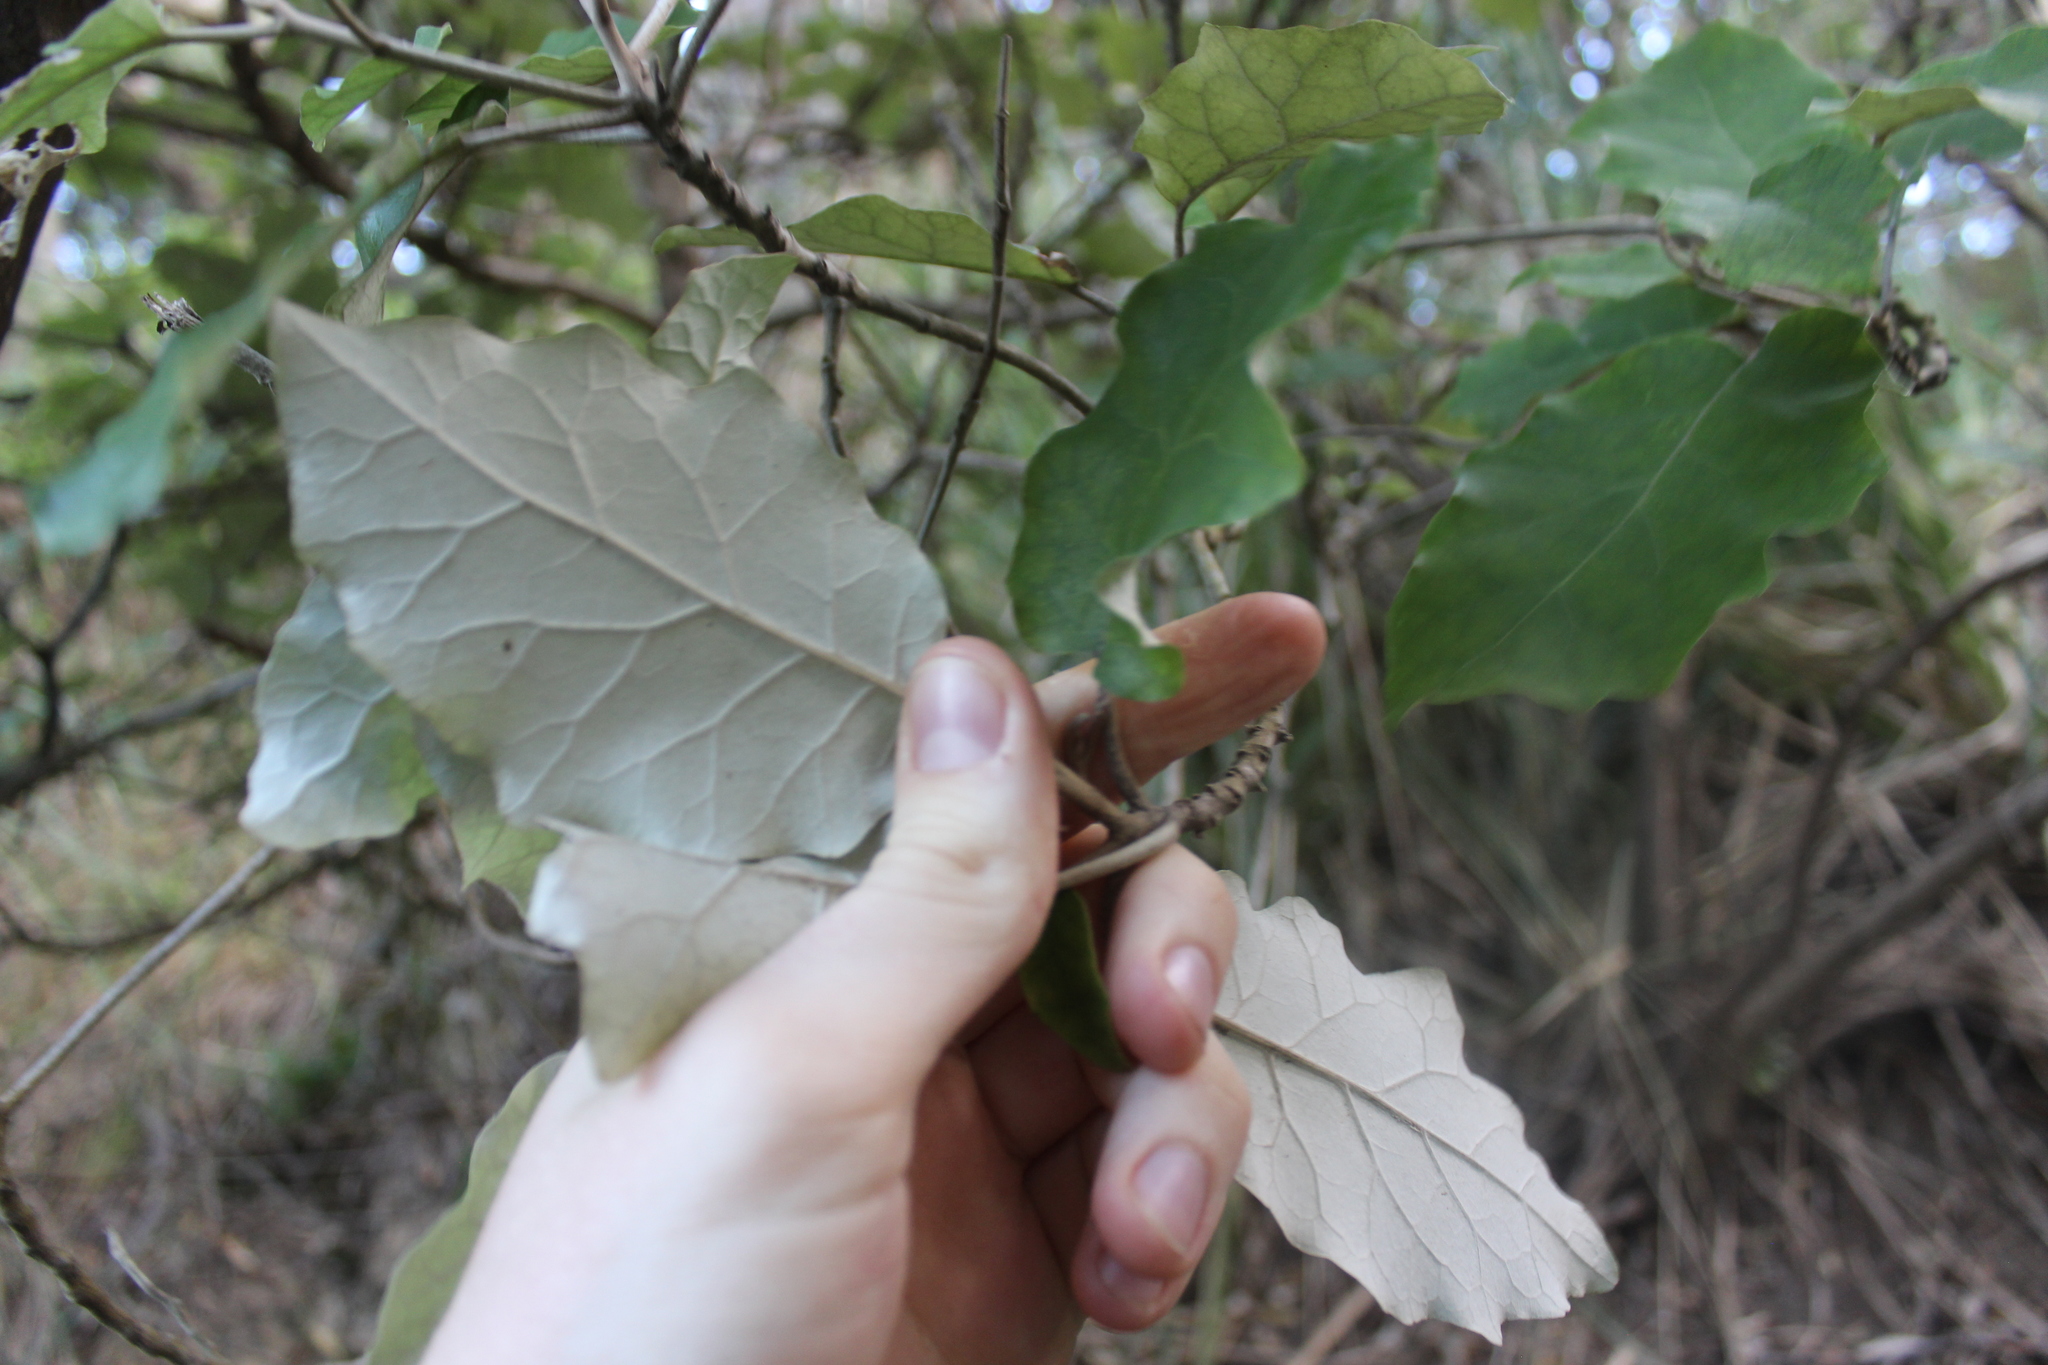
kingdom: Plantae
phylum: Tracheophyta
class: Magnoliopsida
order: Asterales
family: Asteraceae
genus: Brachyglottis
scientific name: Brachyglottis repanda
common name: Hedge ragwort
